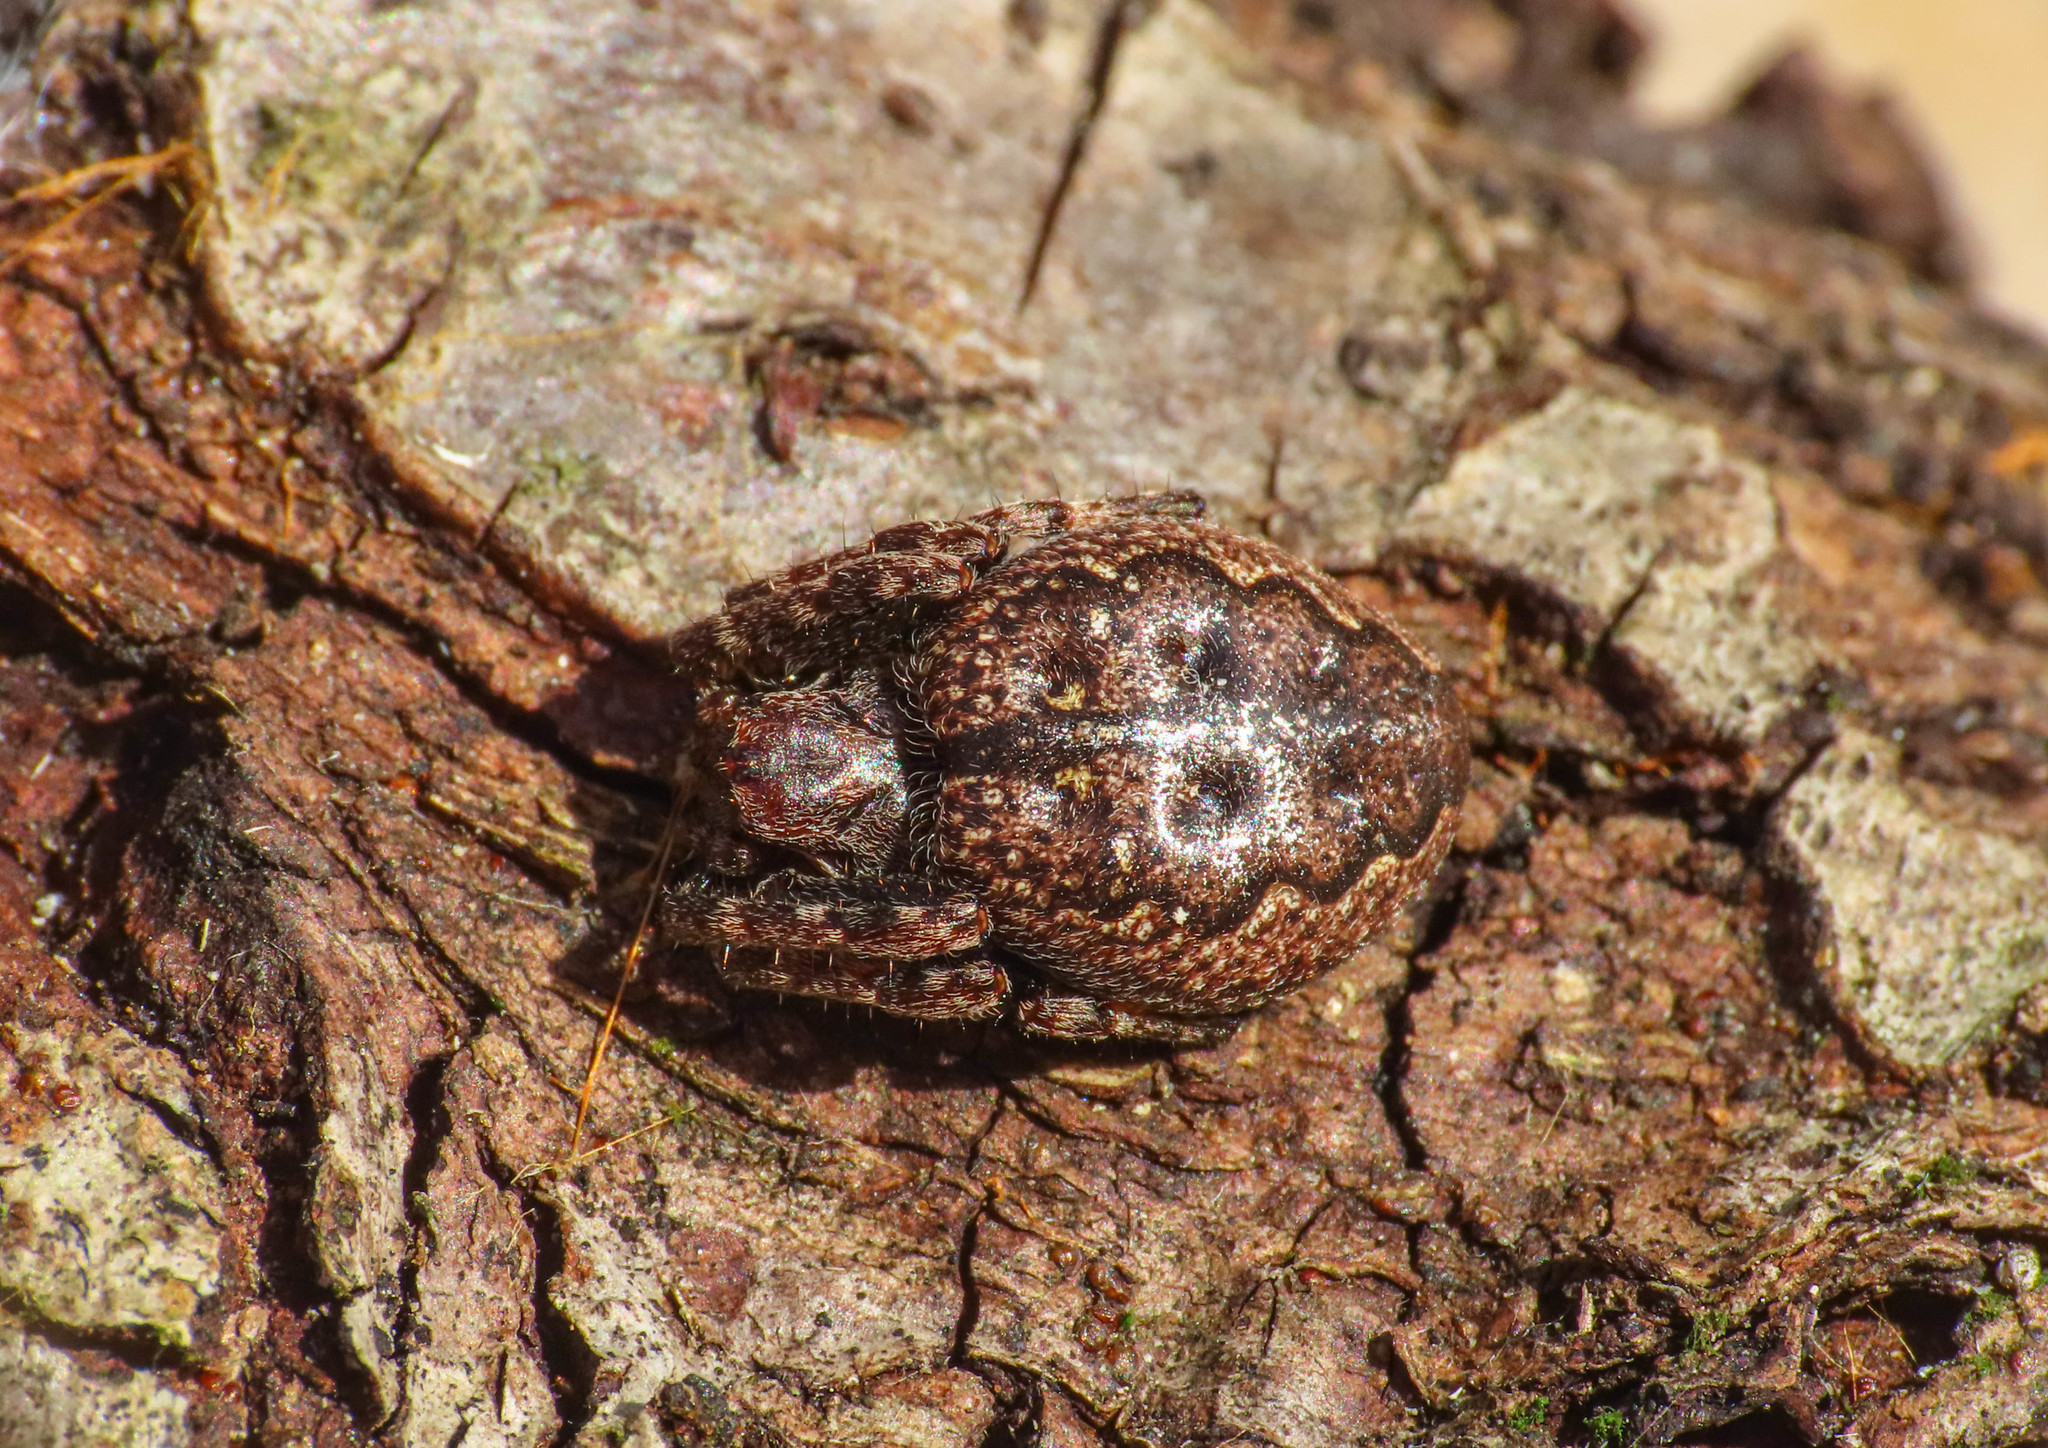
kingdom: Animalia
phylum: Arthropoda
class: Arachnida
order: Araneae
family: Araneidae
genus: Nuctenea
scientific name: Nuctenea umbratica
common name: Toad spider
